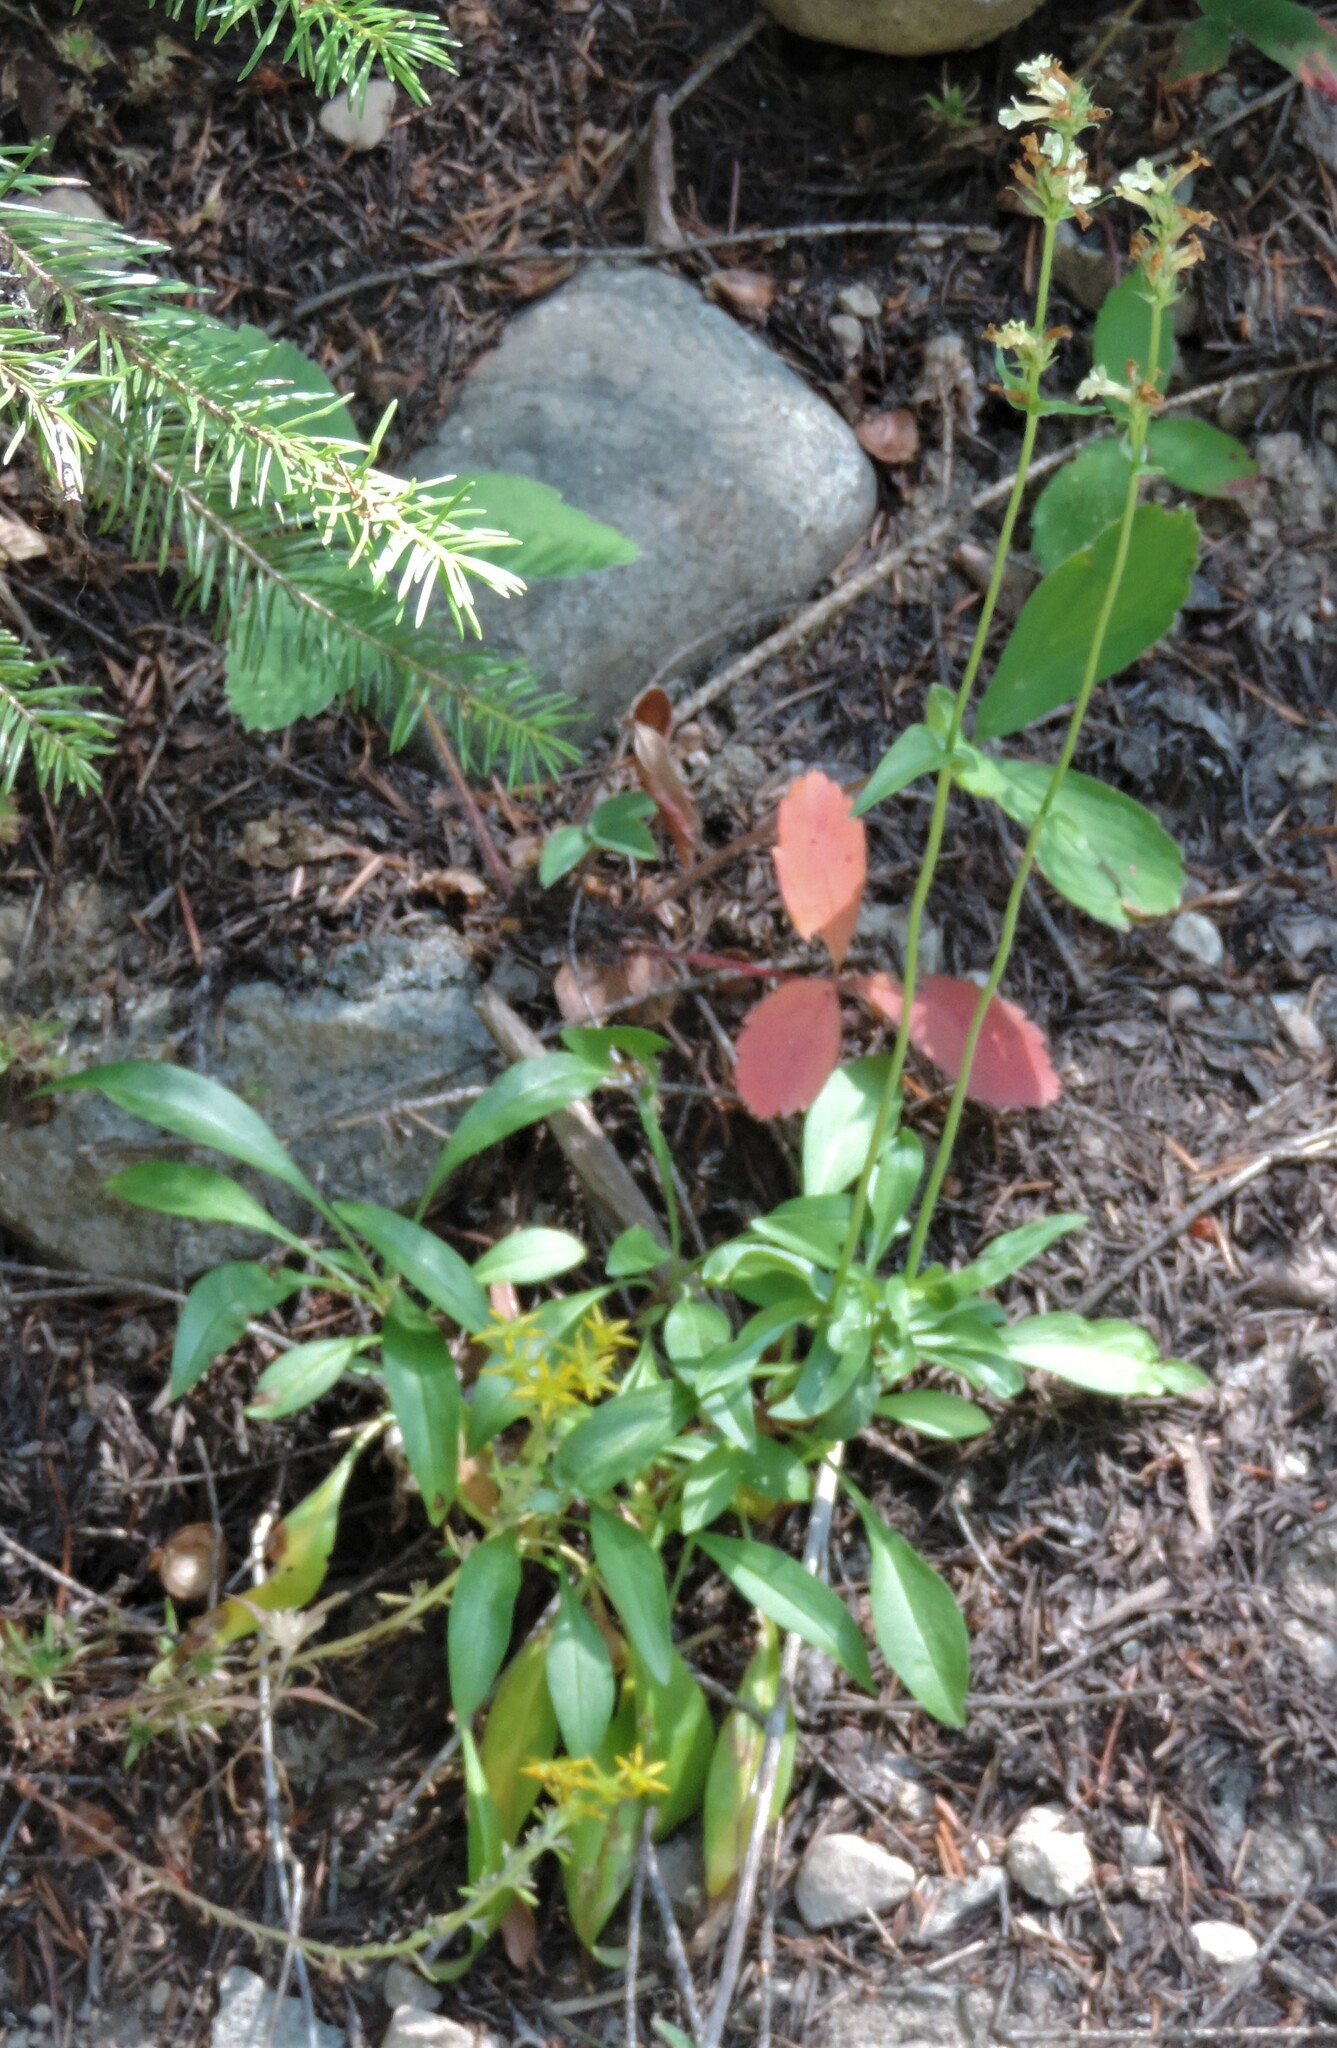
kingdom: Plantae
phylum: Tracheophyta
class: Magnoliopsida
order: Lamiales
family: Plantaginaceae
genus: Penstemon
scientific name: Penstemon confertus
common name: Lesser yellow beardtongue
